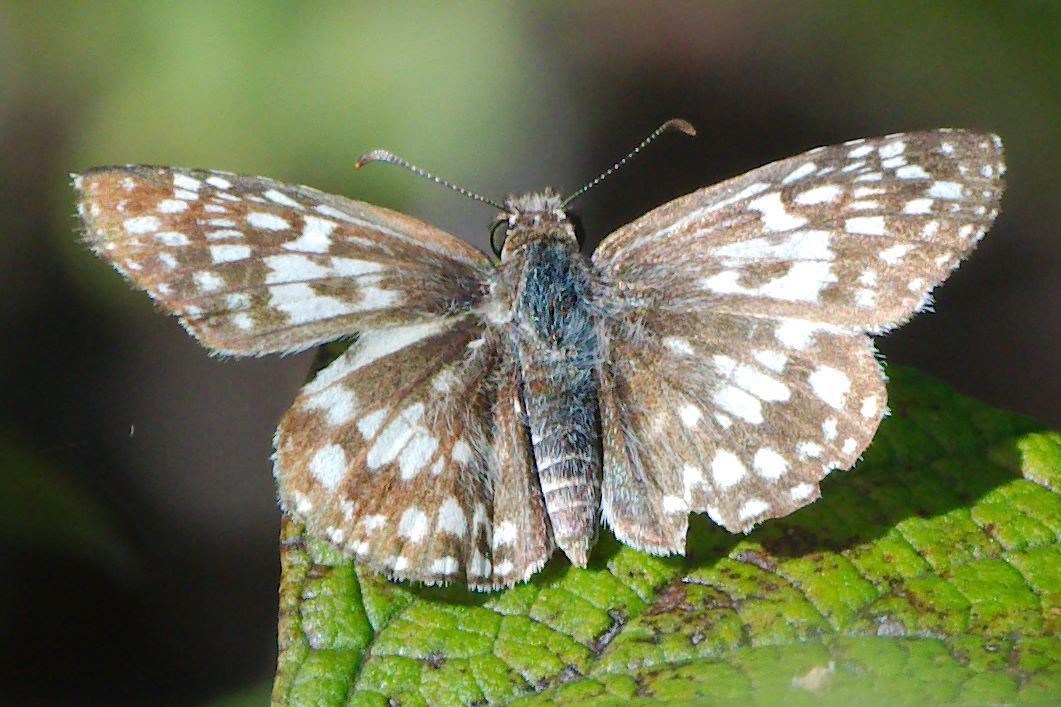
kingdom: Animalia
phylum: Arthropoda
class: Insecta
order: Lepidoptera
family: Hesperiidae
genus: Pyrgus
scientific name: Pyrgus oileus
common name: Tropical checkered-skipper
